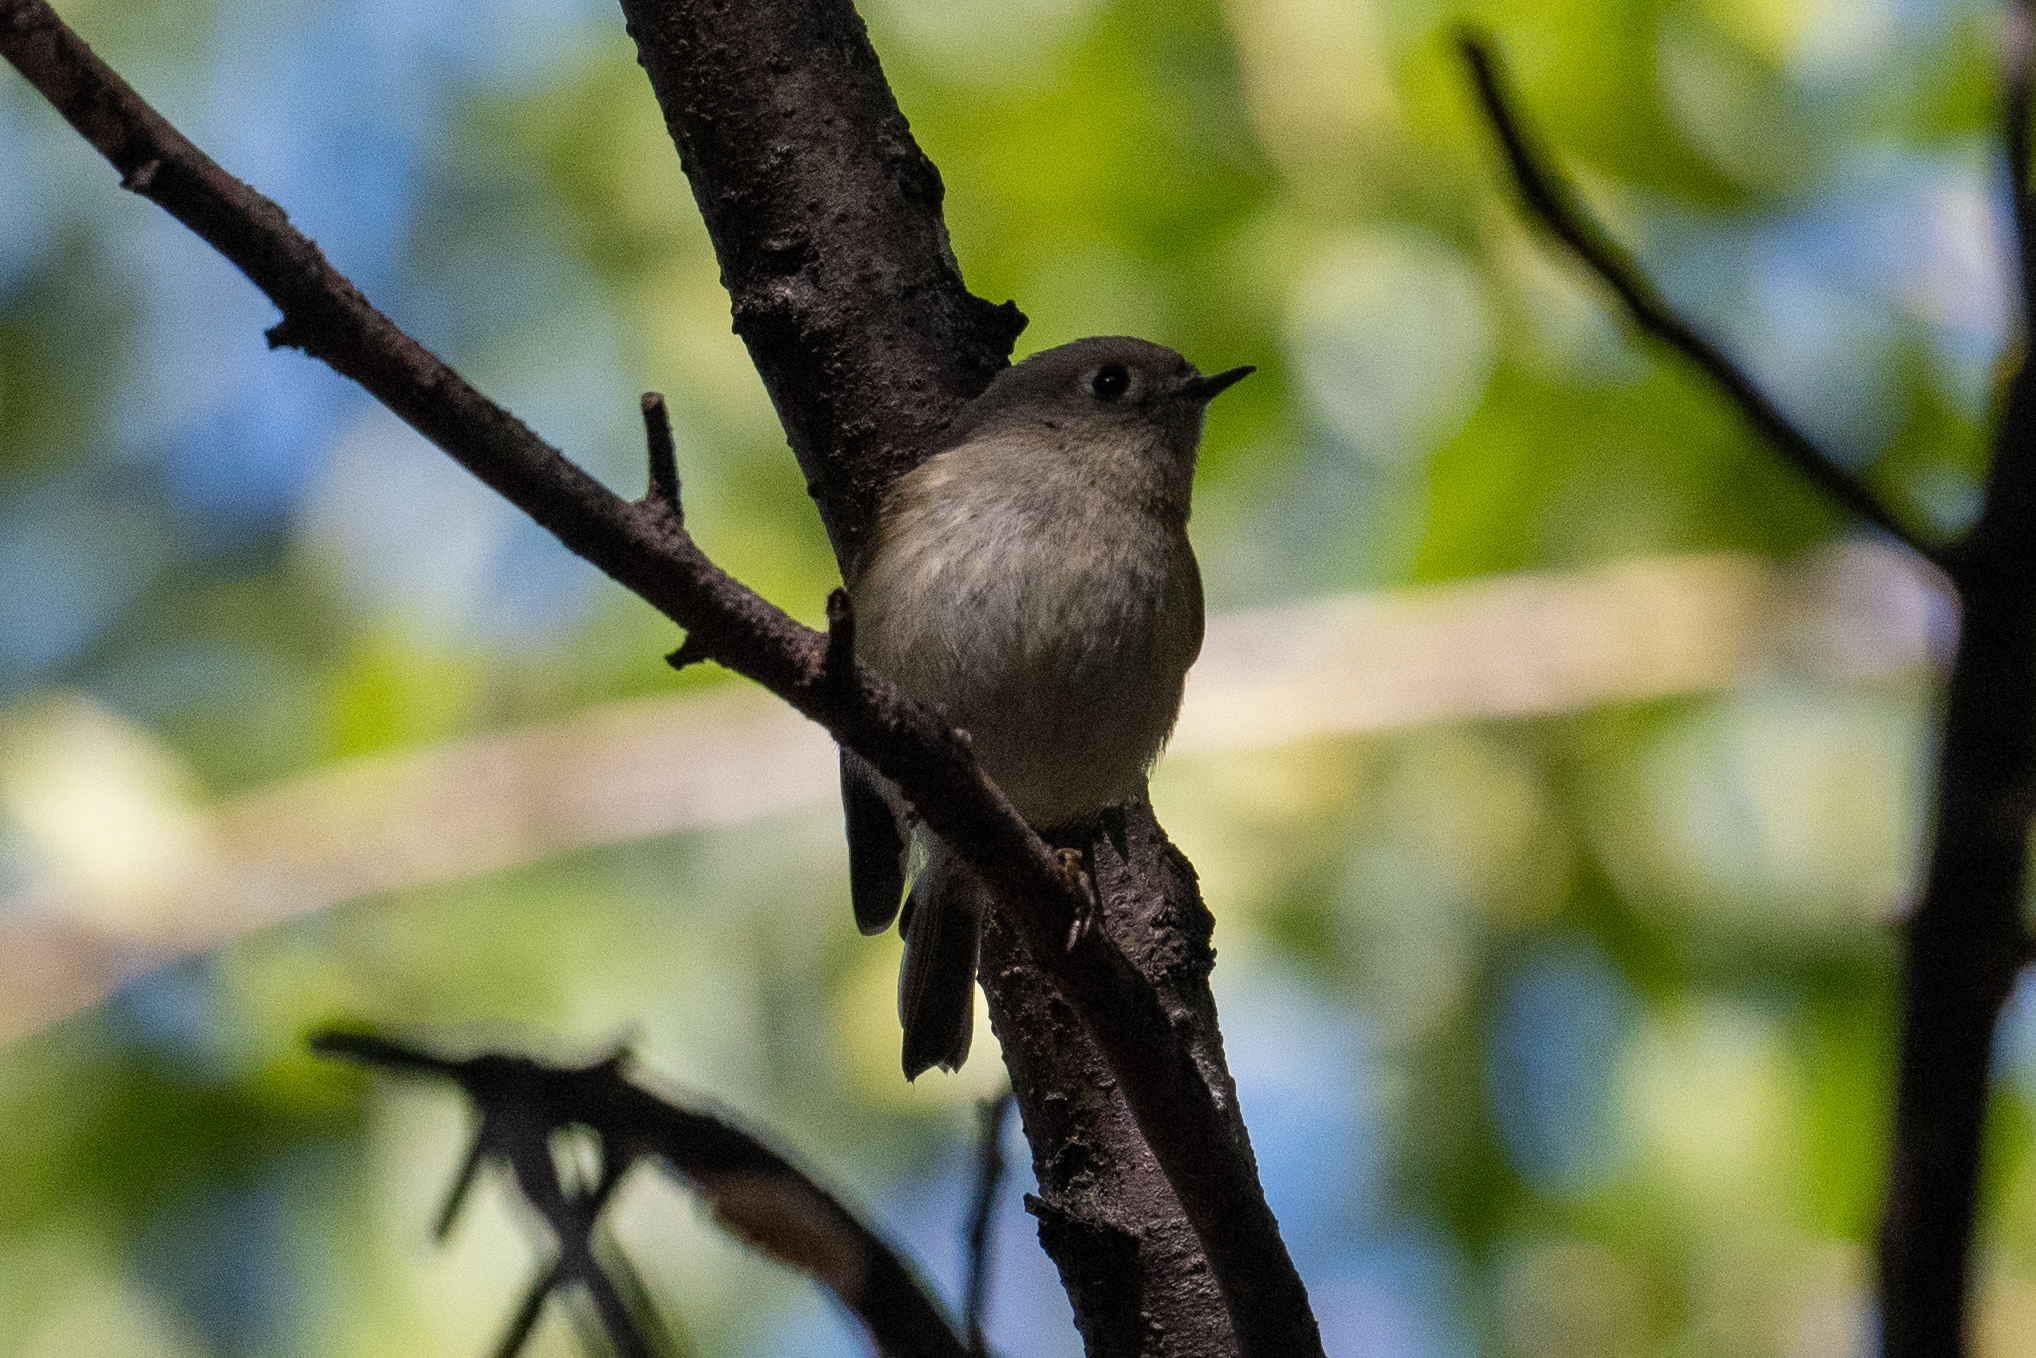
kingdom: Animalia
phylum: Chordata
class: Aves
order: Passeriformes
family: Regulidae
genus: Regulus
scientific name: Regulus calendula
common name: Ruby-crowned kinglet
